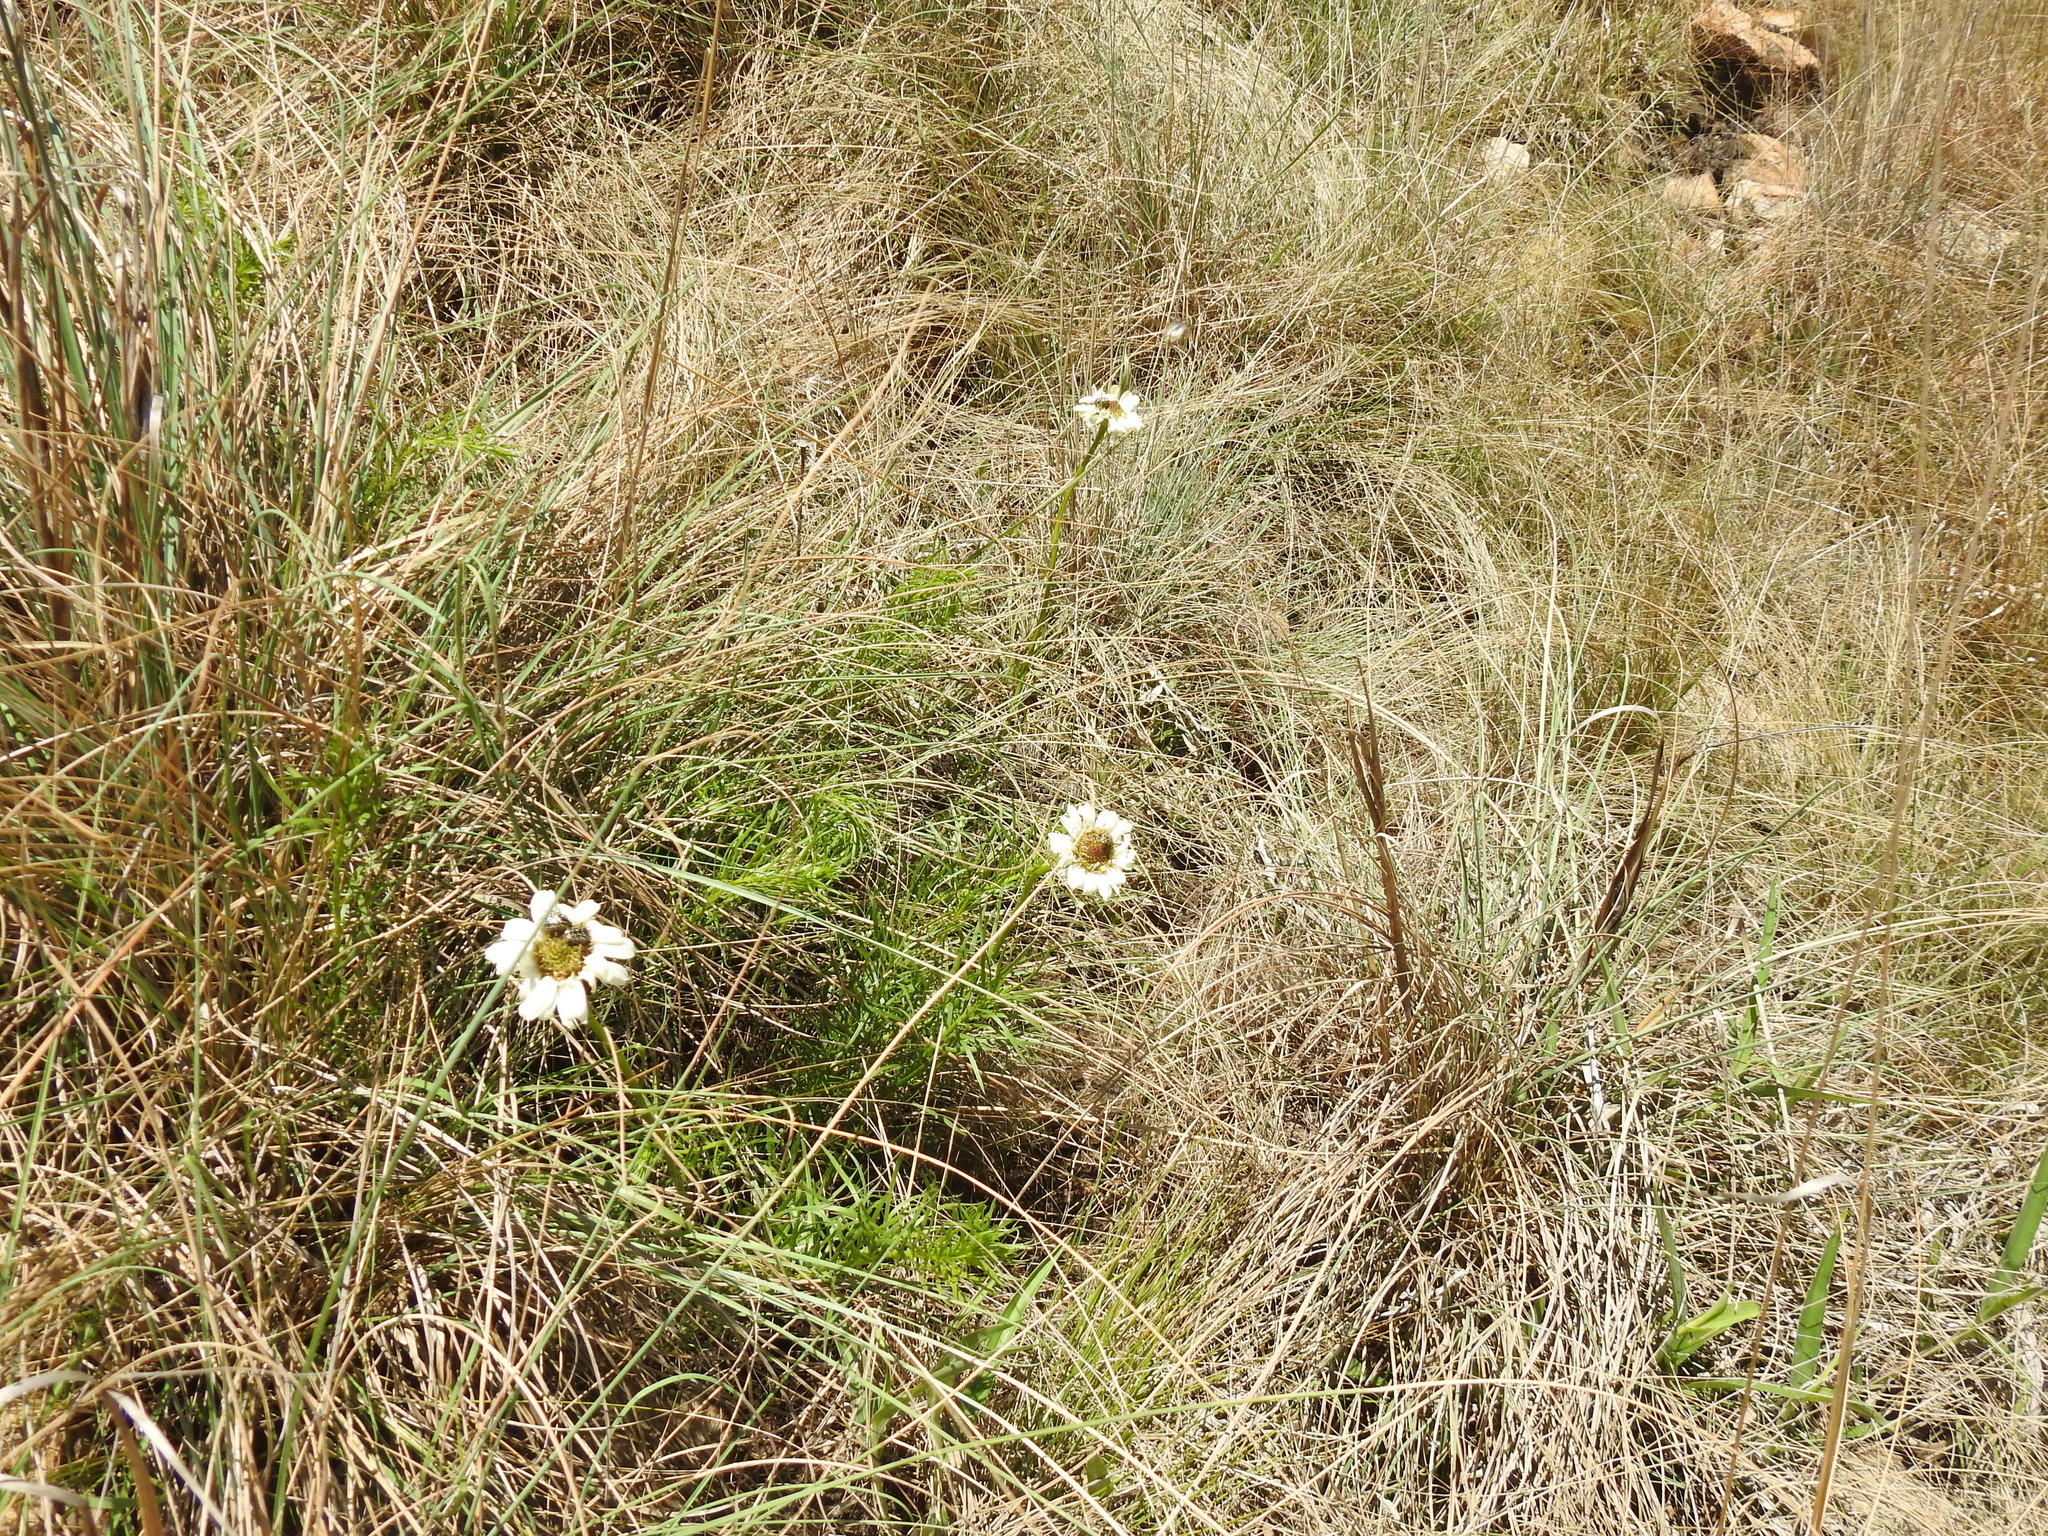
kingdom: Plantae
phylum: Tracheophyta
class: Magnoliopsida
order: Asterales
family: Asteraceae
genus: Callilepis
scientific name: Callilepis leptophylla
